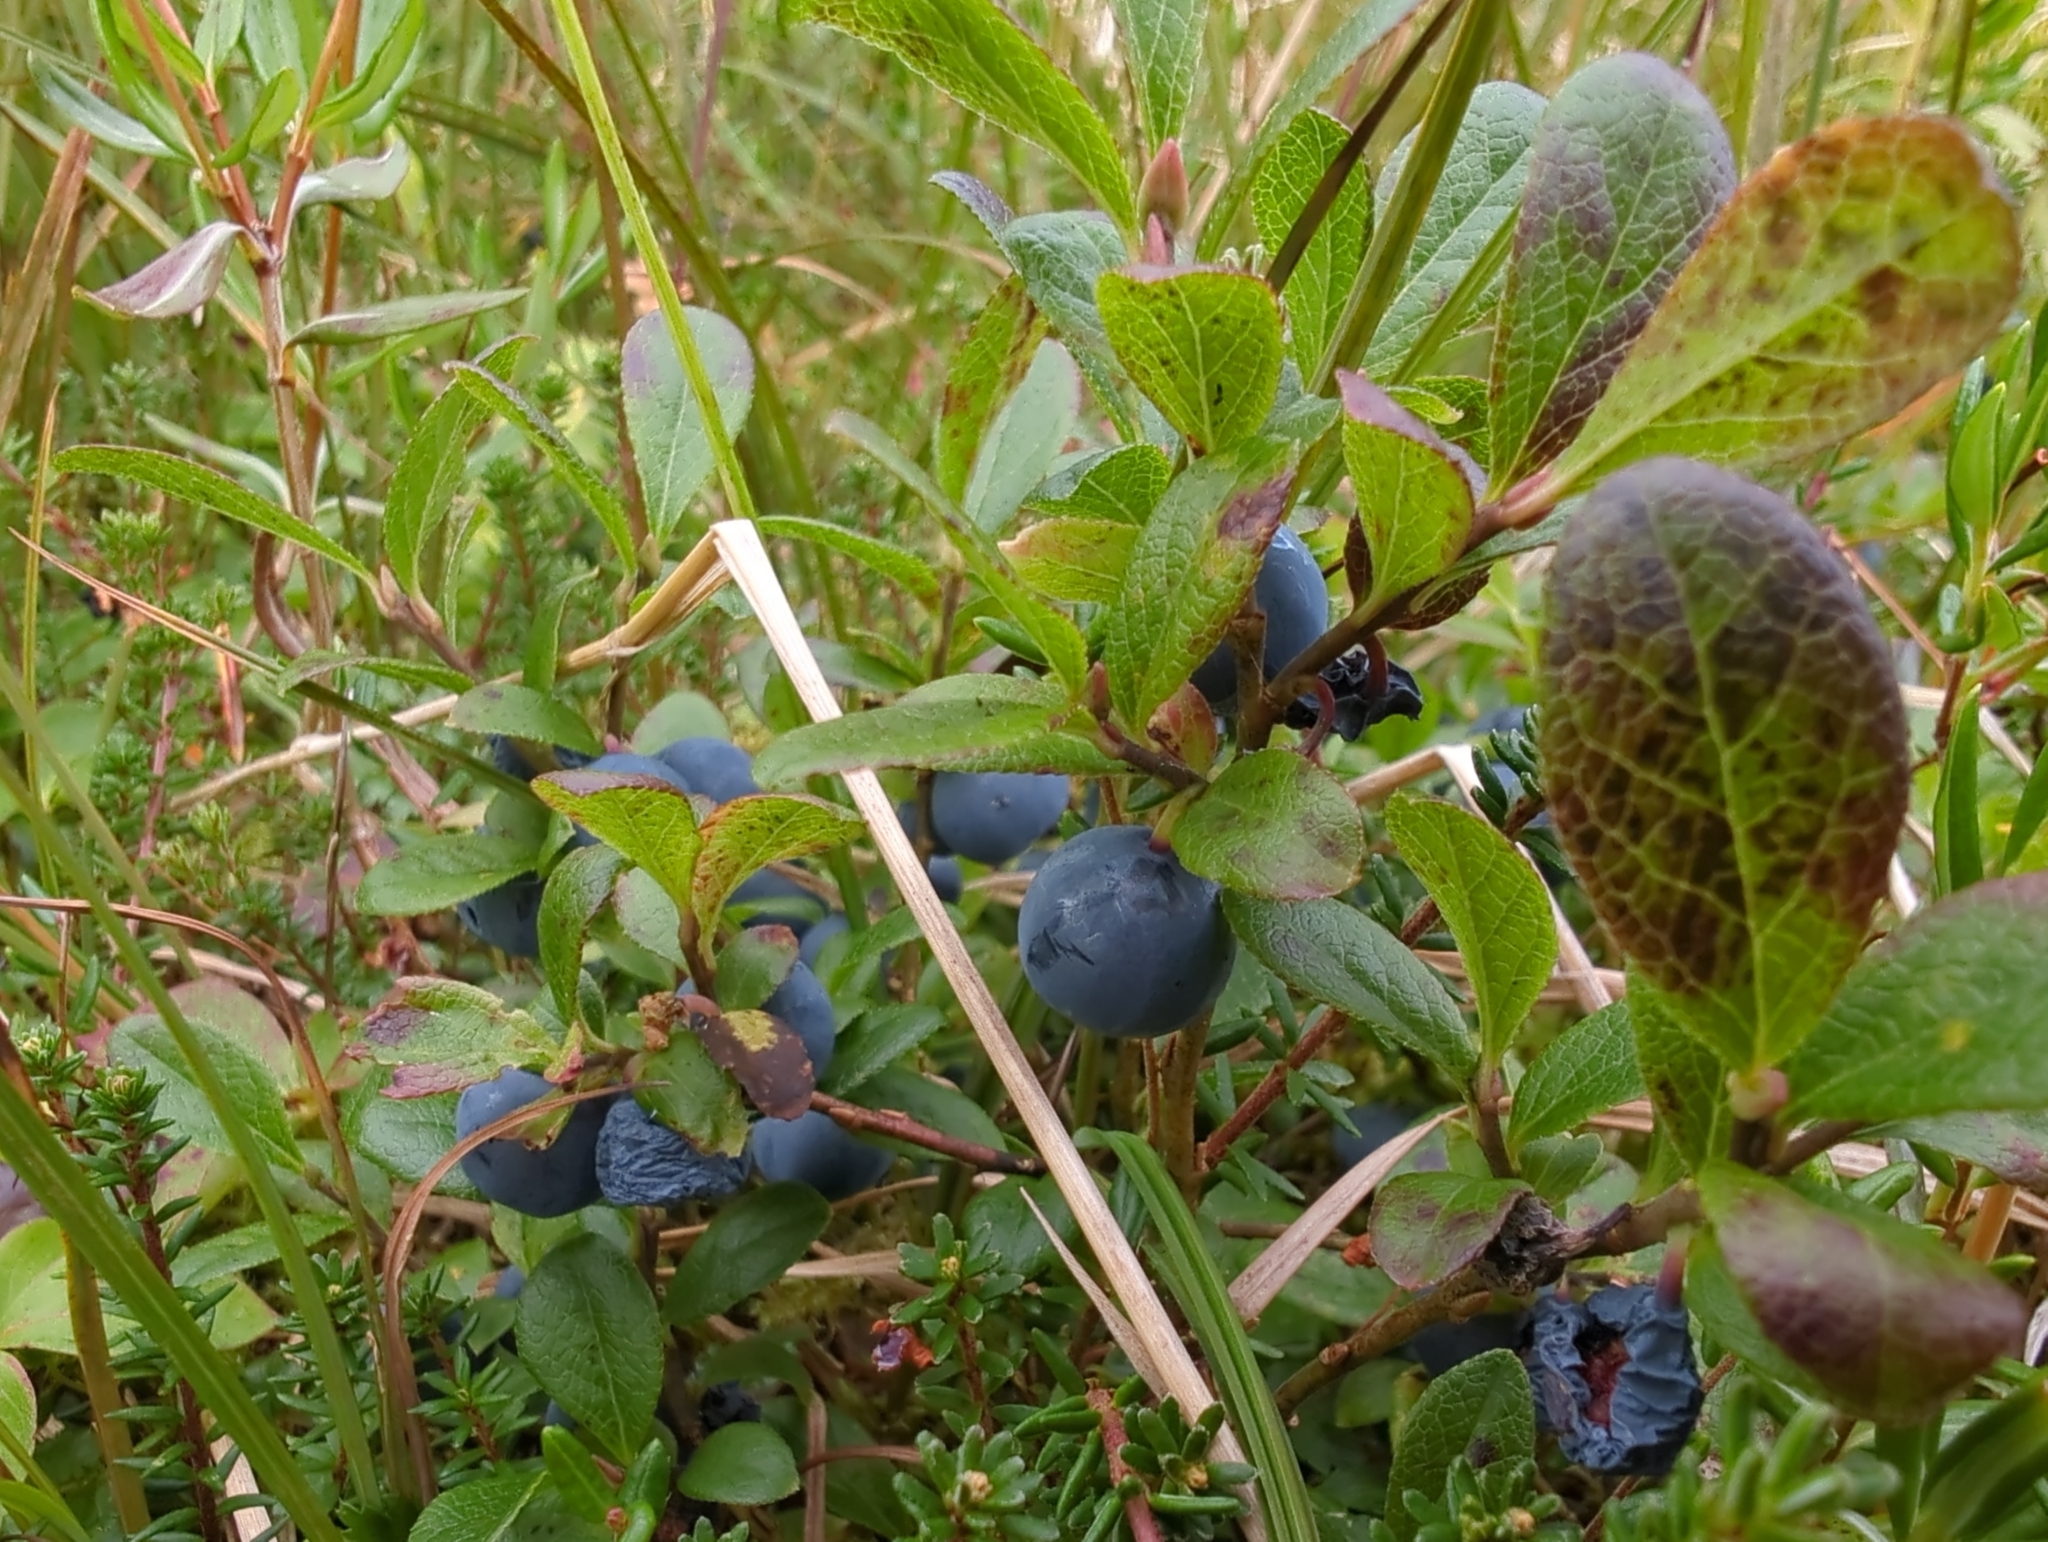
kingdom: Plantae
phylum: Tracheophyta
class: Magnoliopsida
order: Ericales
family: Ericaceae
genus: Vaccinium
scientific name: Vaccinium cespitosum
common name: Dwarf bilberry
